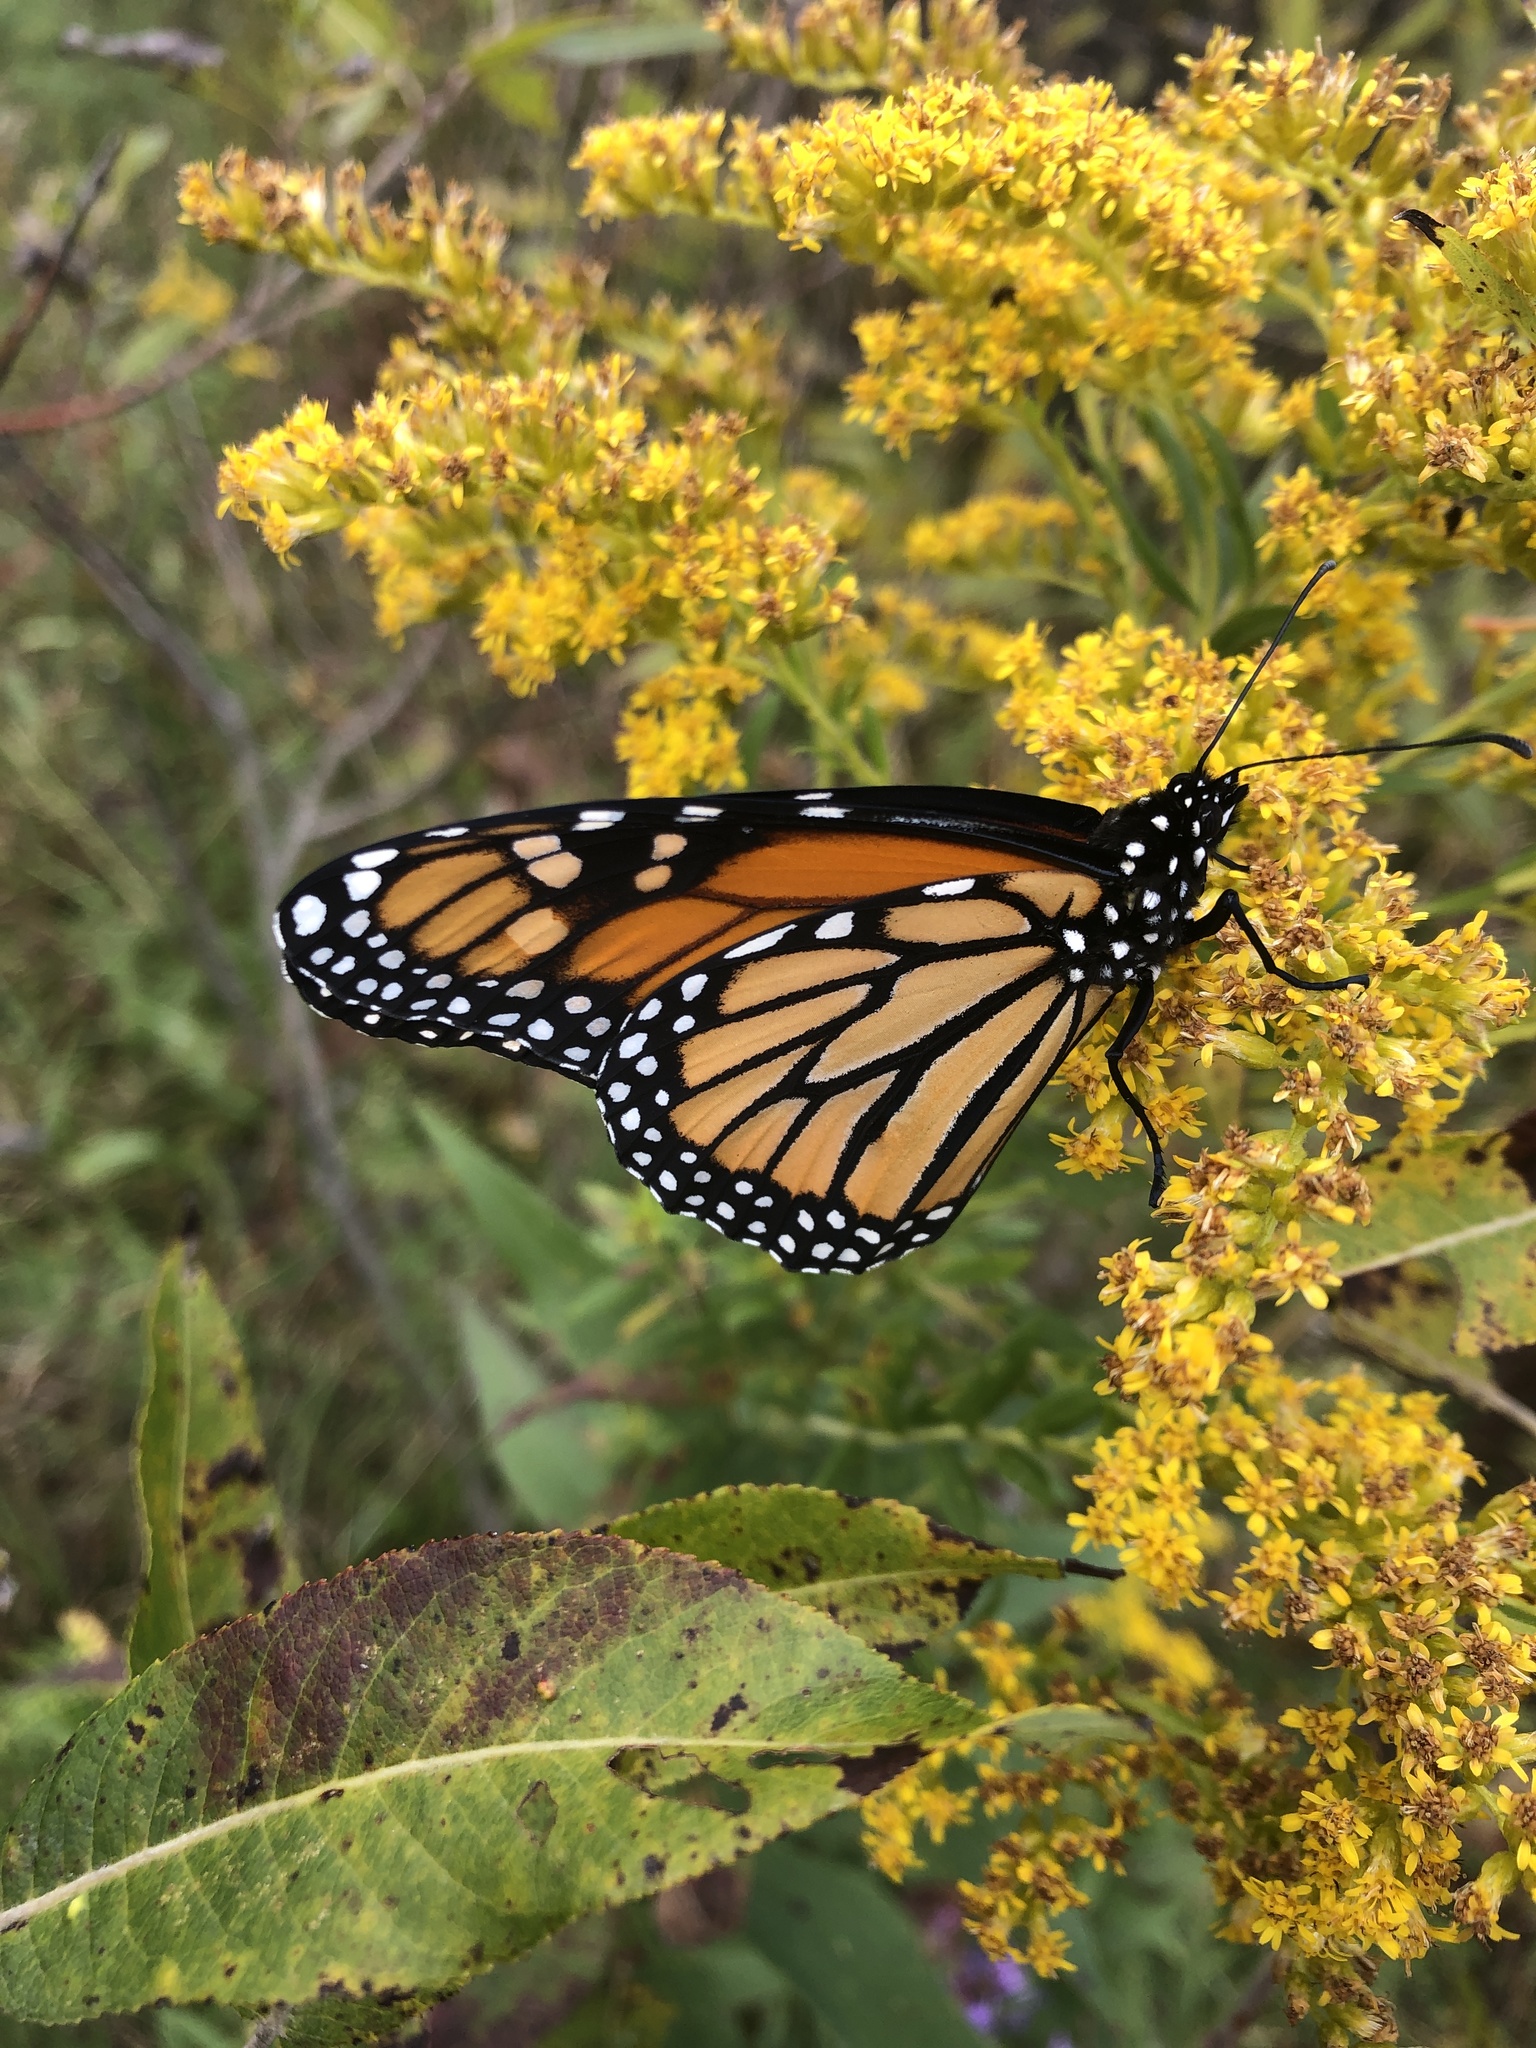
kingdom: Animalia
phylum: Arthropoda
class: Insecta
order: Lepidoptera
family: Nymphalidae
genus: Danaus
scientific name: Danaus plexippus
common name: Monarch
